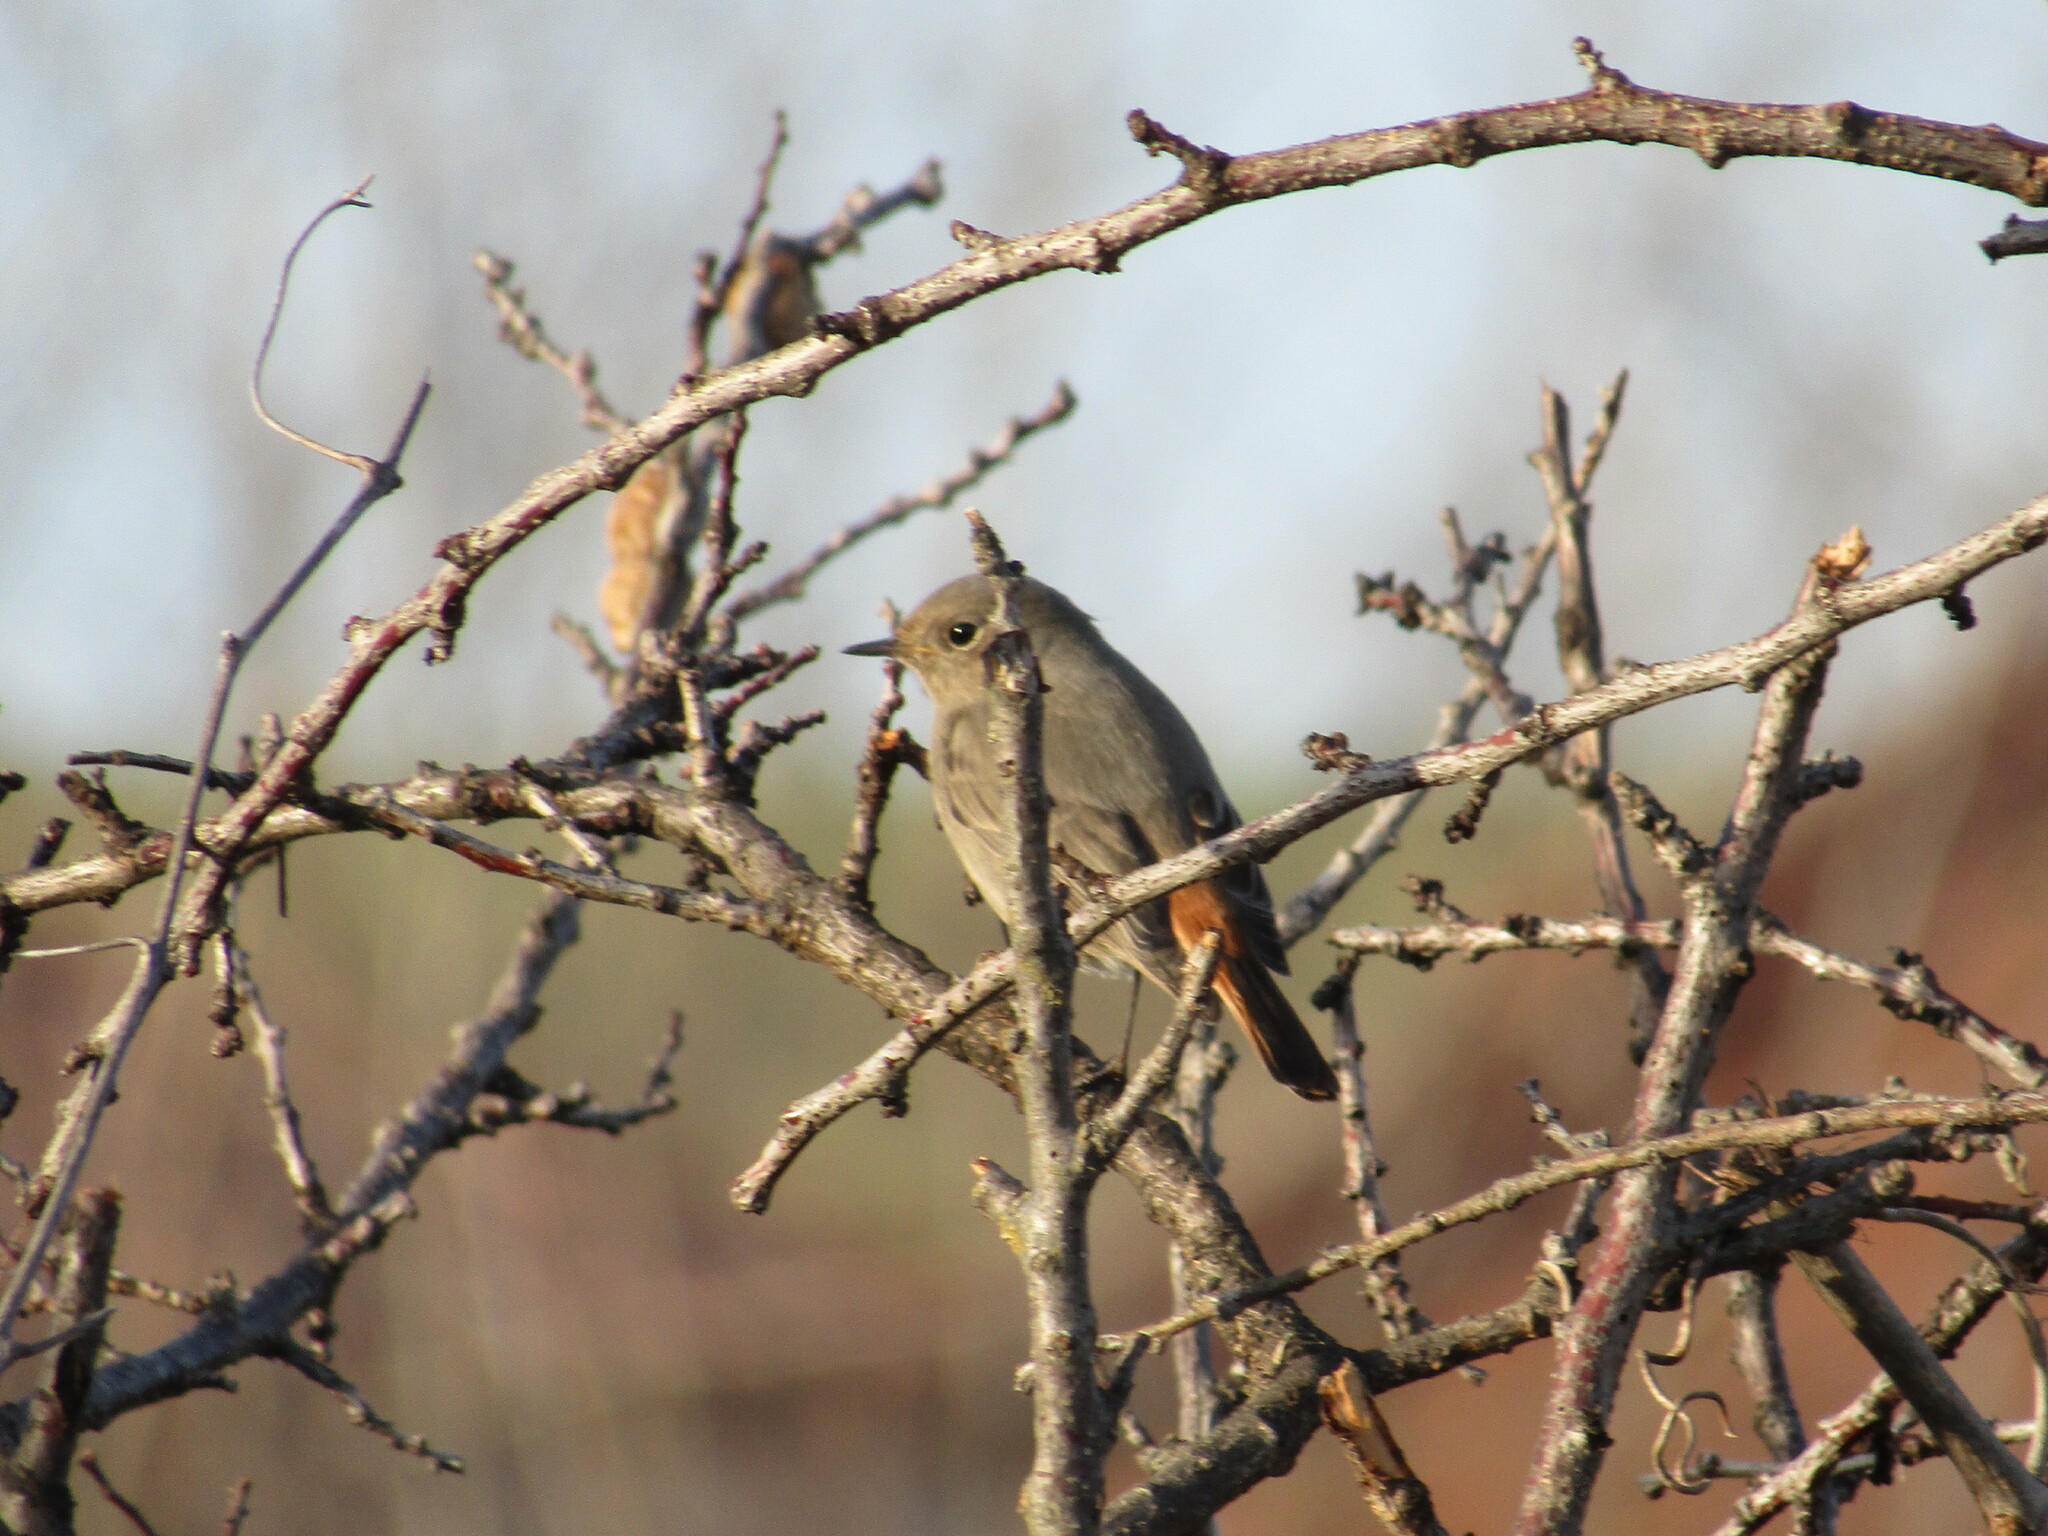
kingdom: Animalia
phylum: Chordata
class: Aves
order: Passeriformes
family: Muscicapidae
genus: Phoenicurus
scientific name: Phoenicurus ochruros
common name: Black redstart
